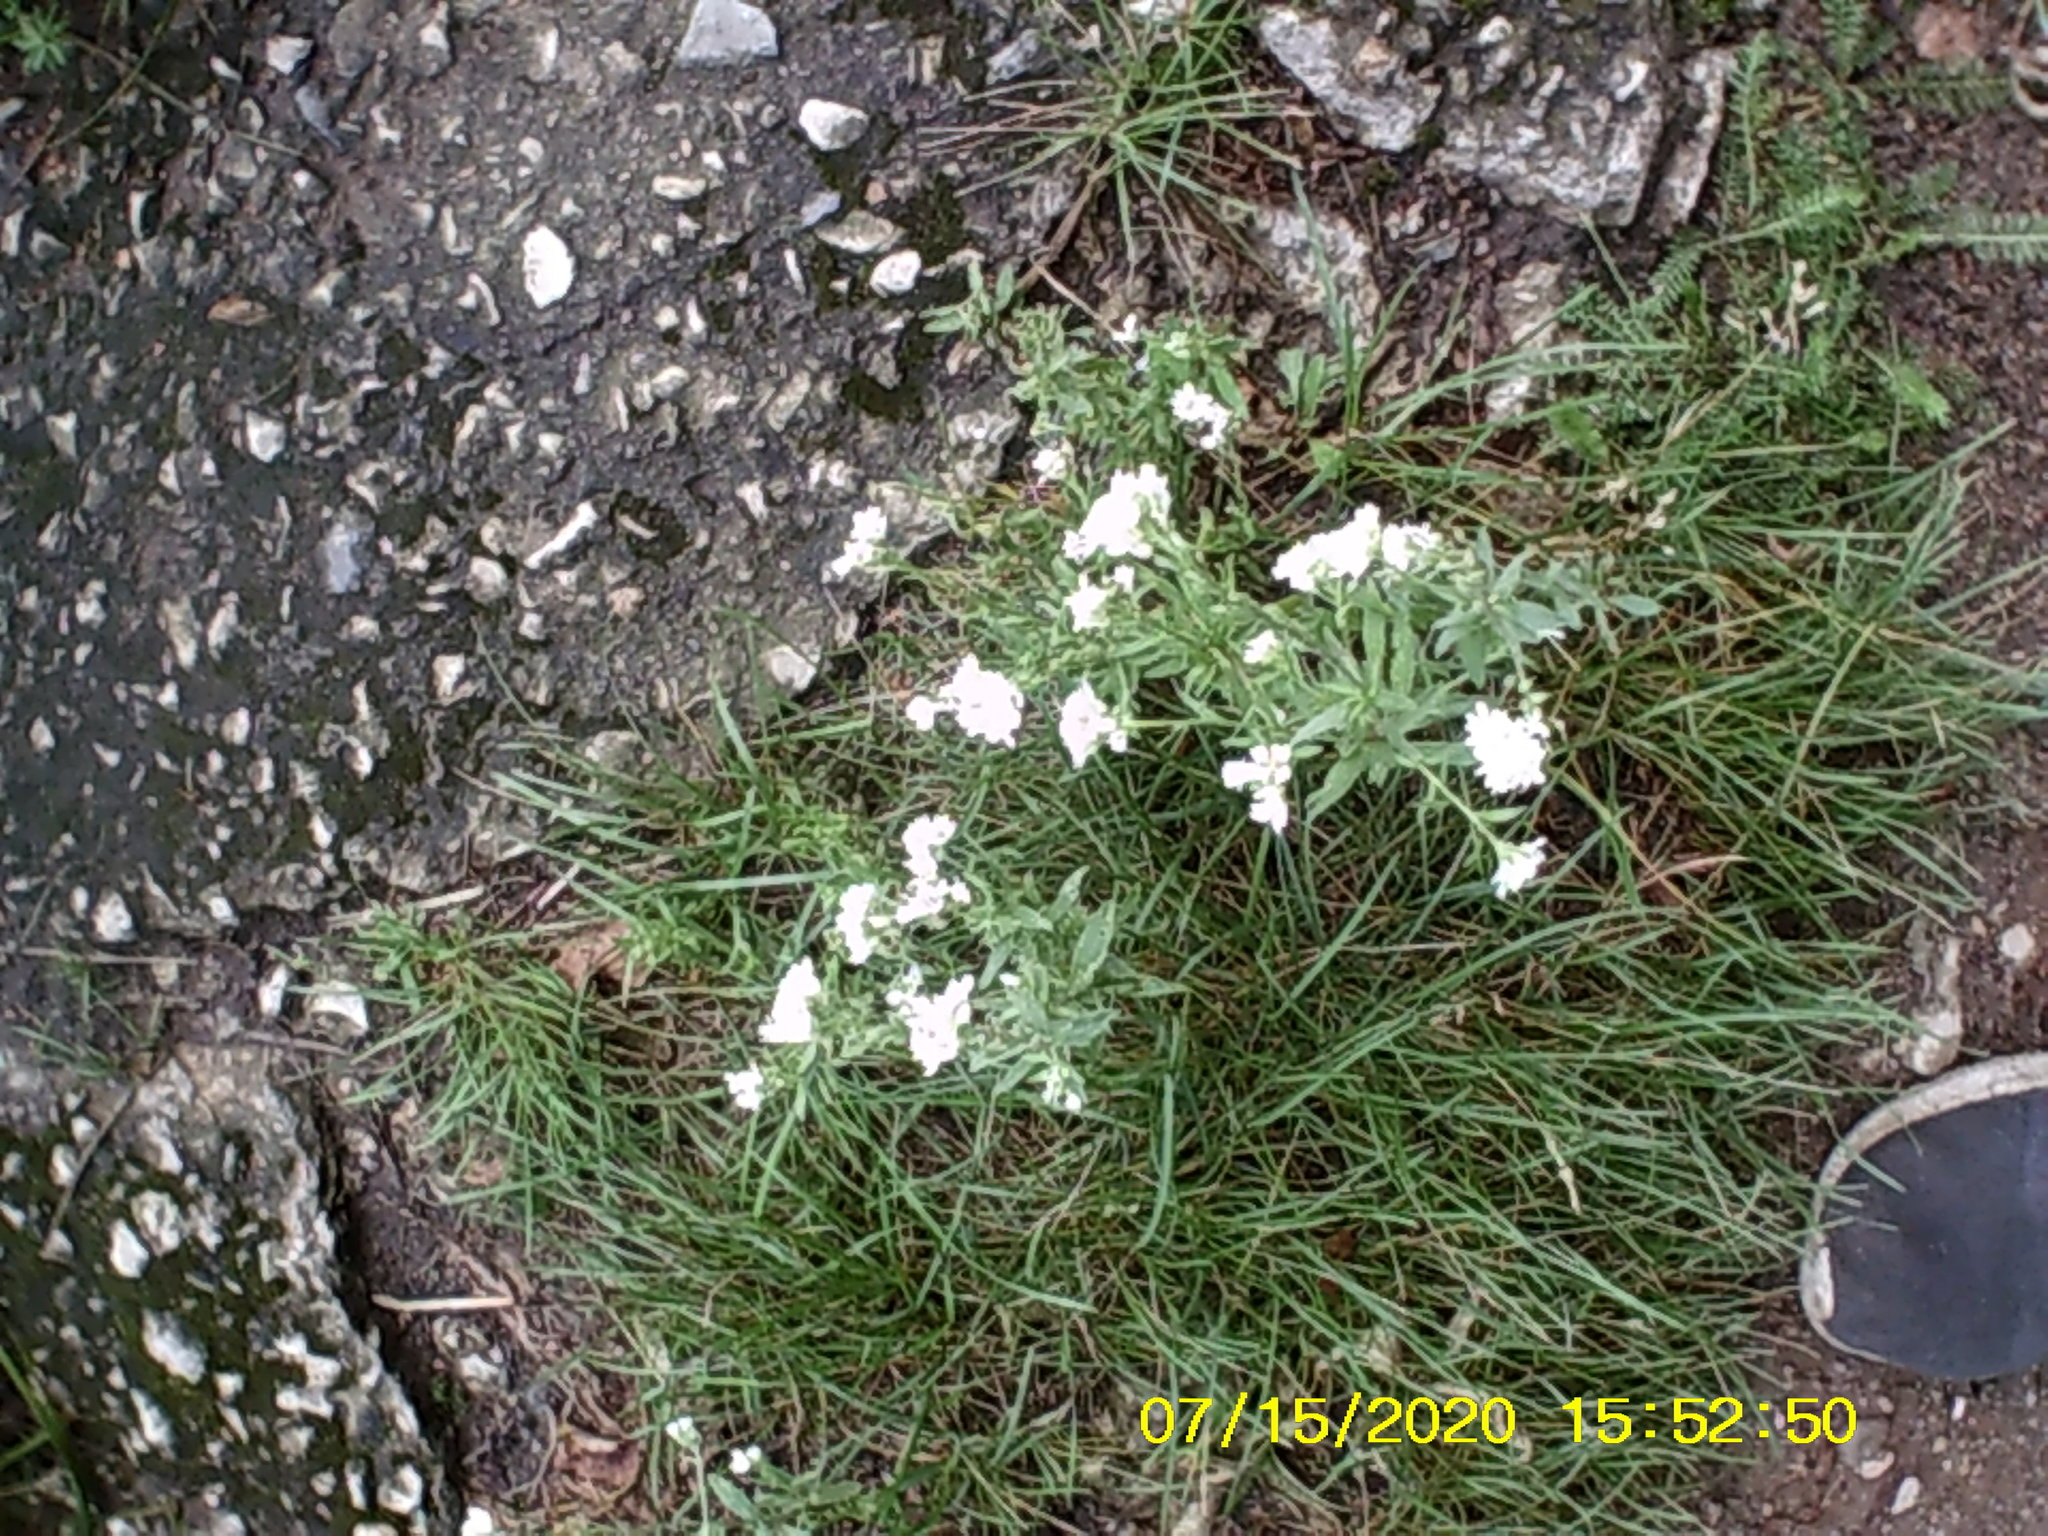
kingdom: Plantae
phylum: Tracheophyta
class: Magnoliopsida
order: Brassicales
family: Brassicaceae
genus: Berteroa
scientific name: Berteroa incana
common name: Hoary alison
